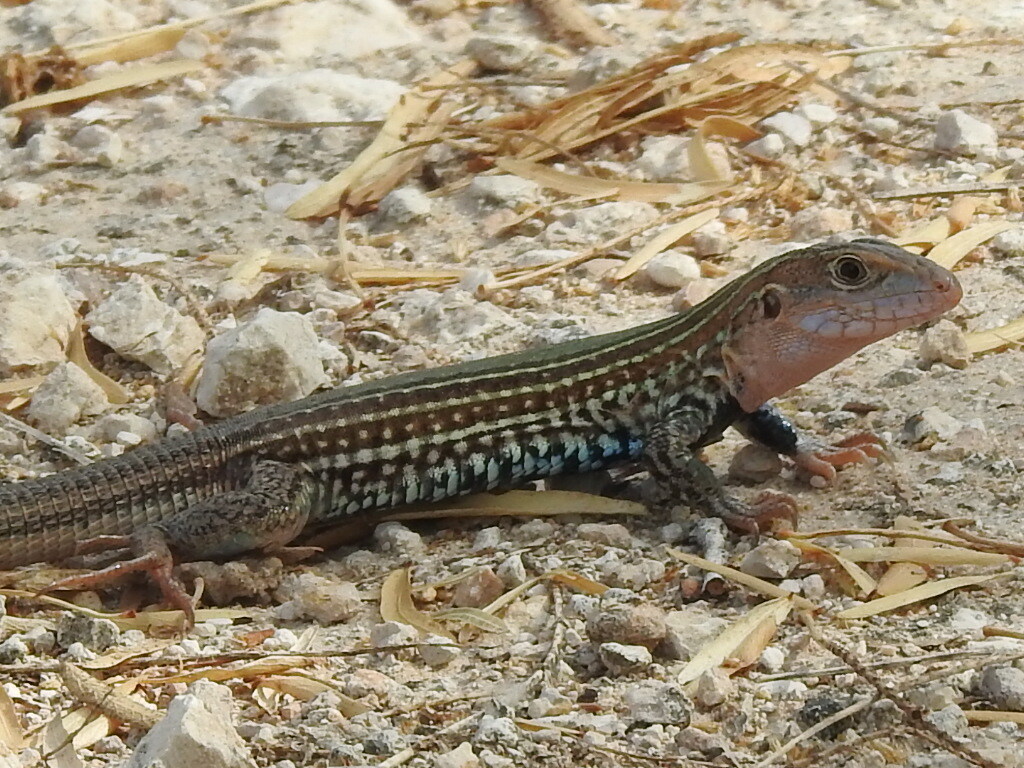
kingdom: Animalia
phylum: Chordata
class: Squamata
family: Teiidae
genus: Aspidoscelis
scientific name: Aspidoscelis gularis
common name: Eastern spotted whiptail
